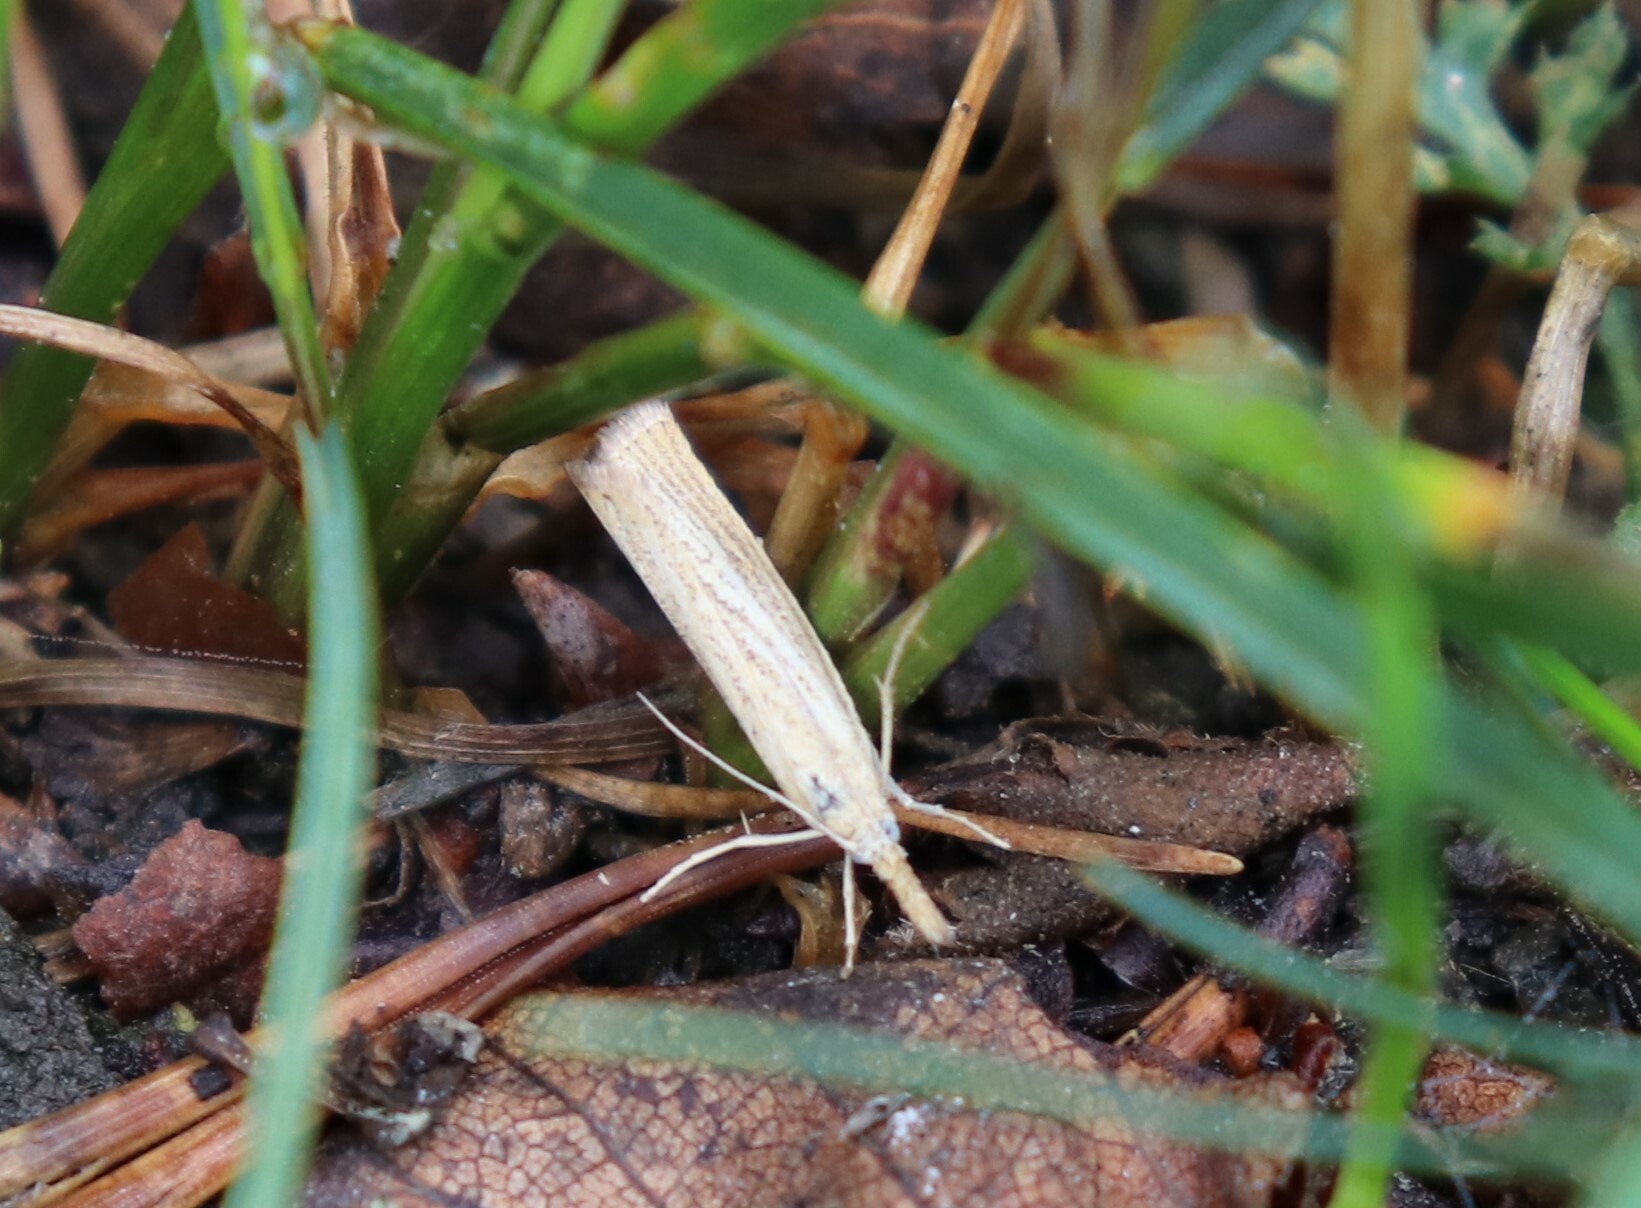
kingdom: Animalia
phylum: Arthropoda
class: Insecta
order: Lepidoptera
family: Crambidae
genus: Agriphila
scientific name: Agriphila straminella
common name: Straw grass-veneer
